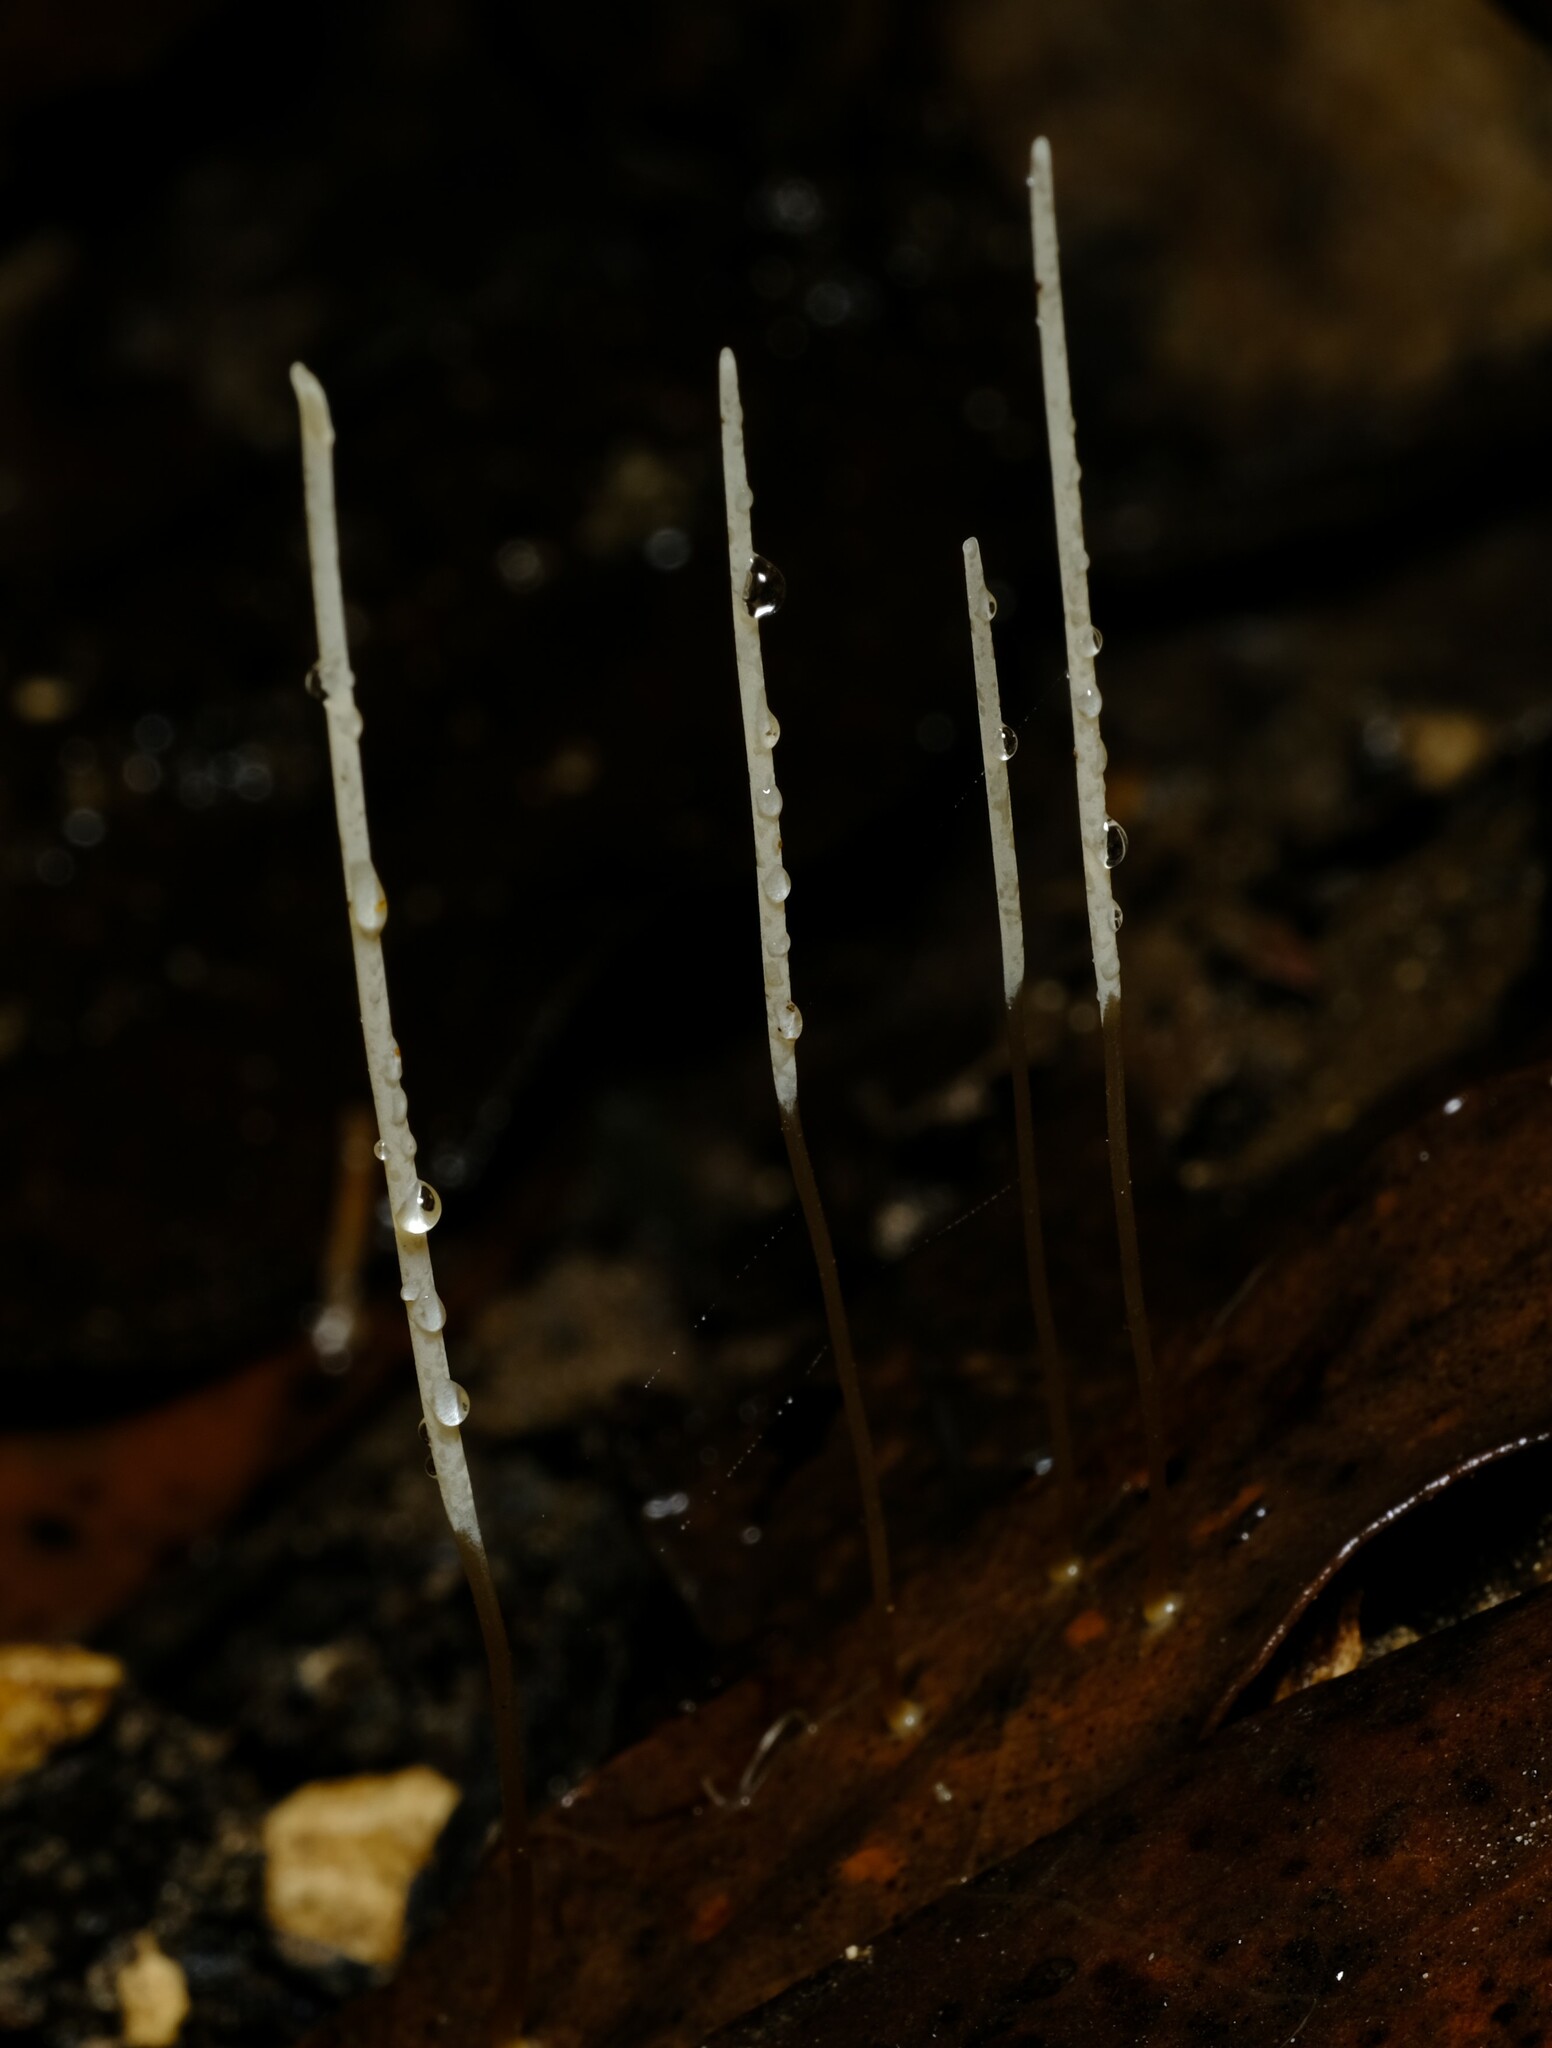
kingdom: Fungi
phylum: Basidiomycota
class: Agaricomycetes
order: Agaricales
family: Typhulaceae
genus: Typhula
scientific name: Typhula juncea
